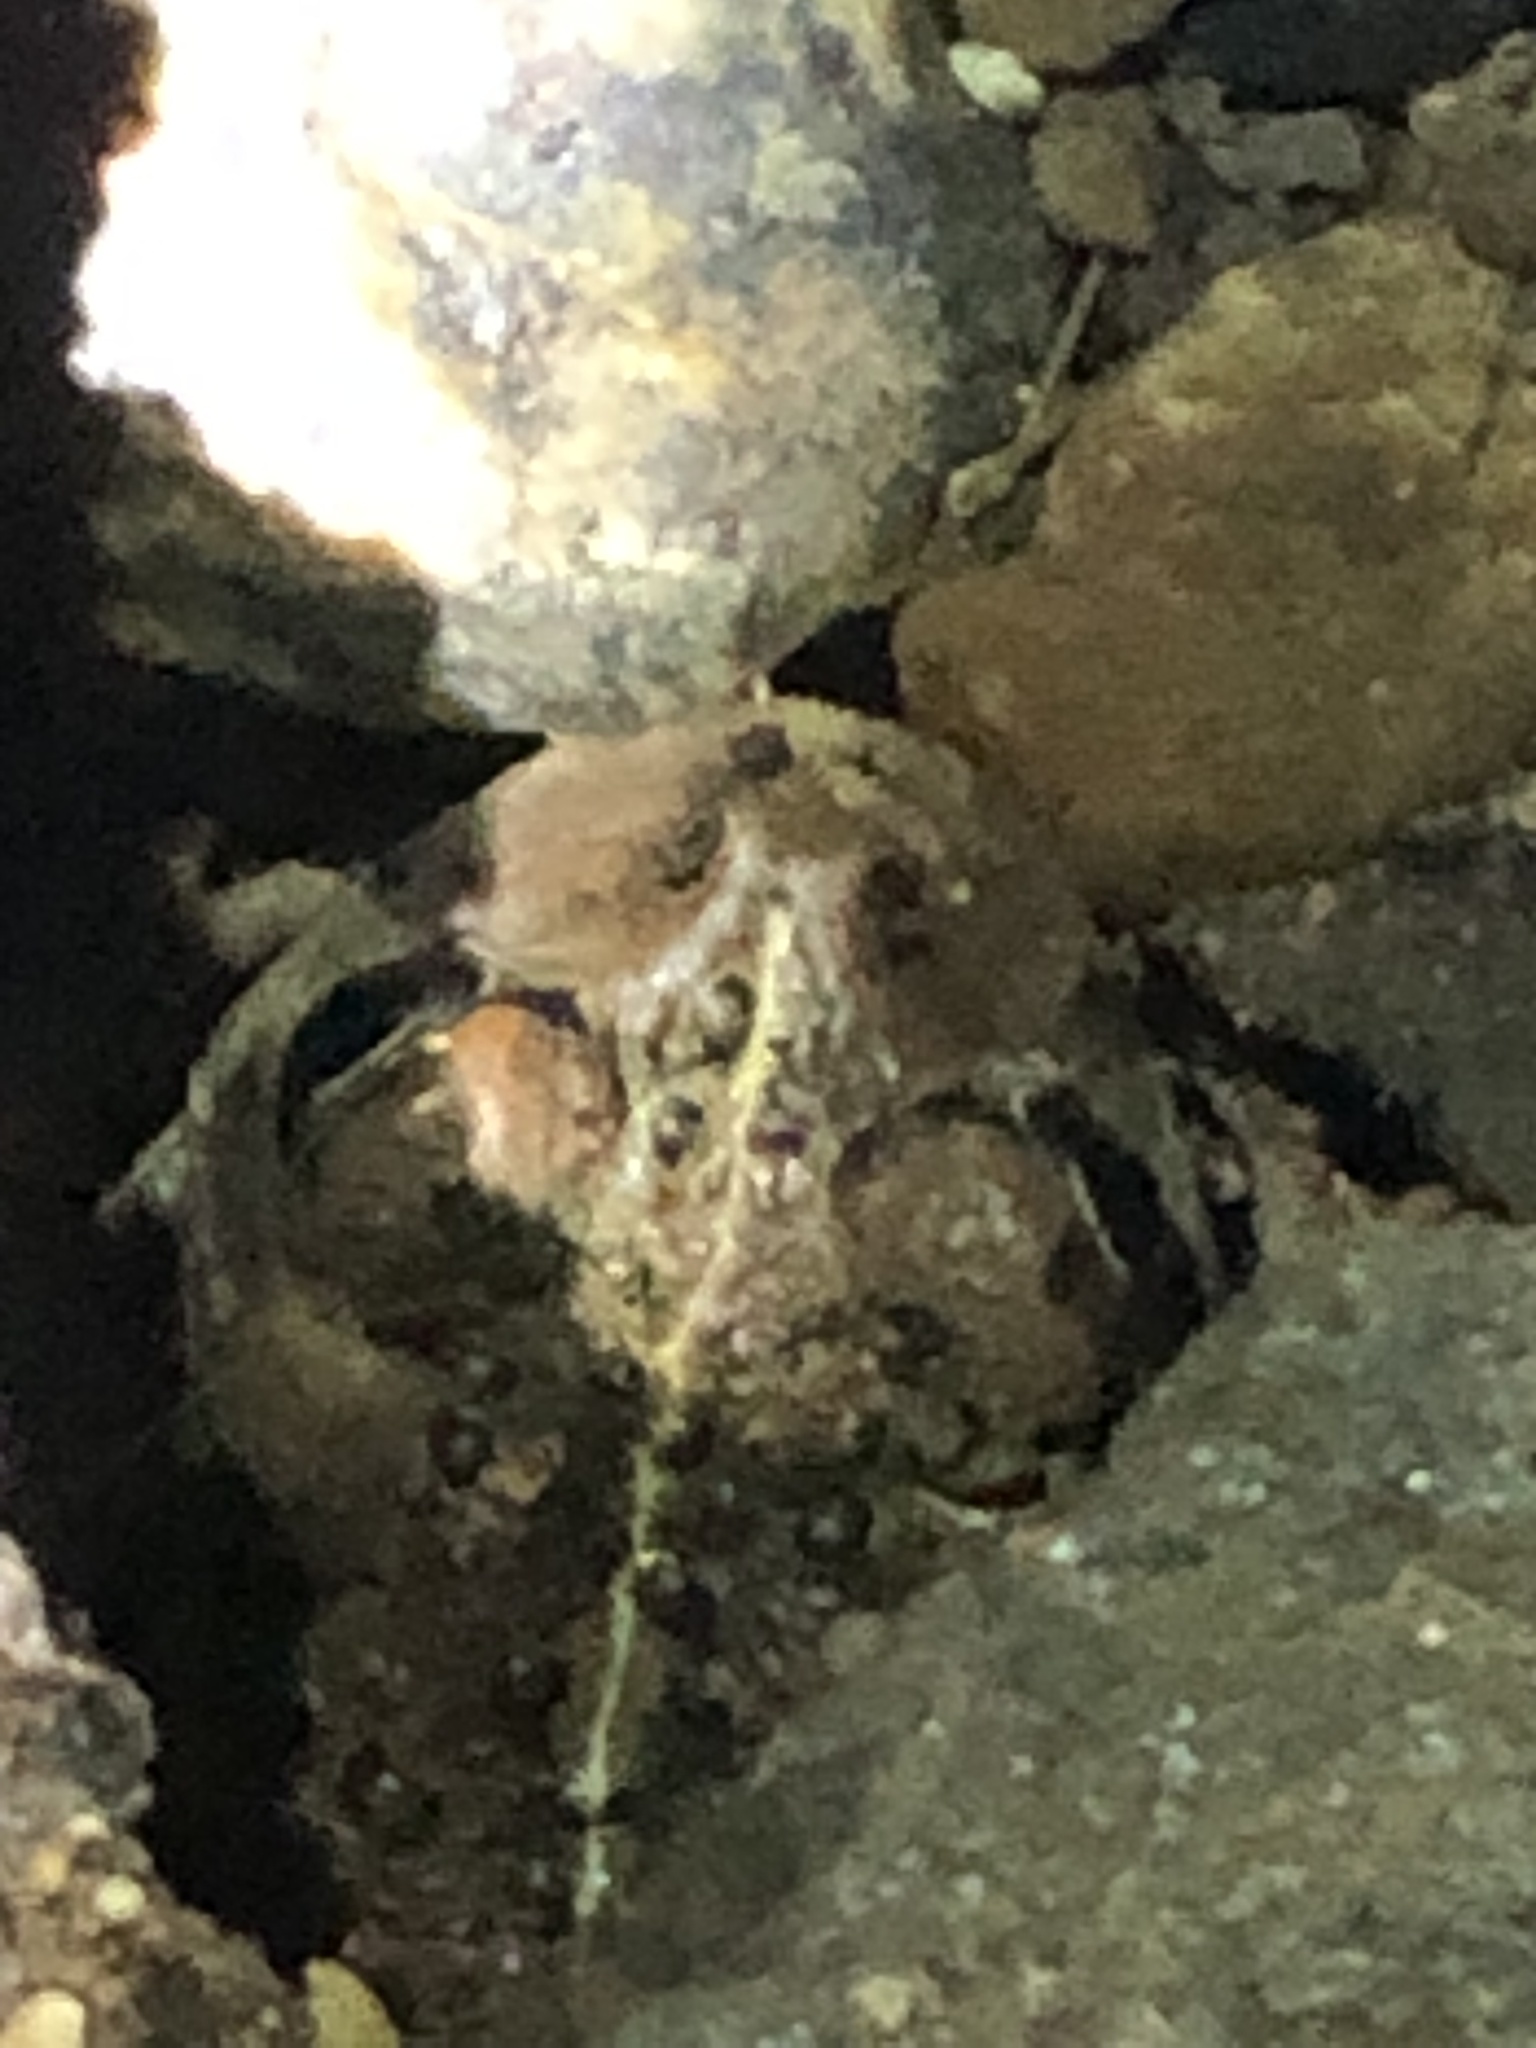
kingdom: Animalia
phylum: Chordata
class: Amphibia
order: Anura
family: Bufonidae
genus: Anaxyrus
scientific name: Anaxyrus boreas
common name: Western toad
